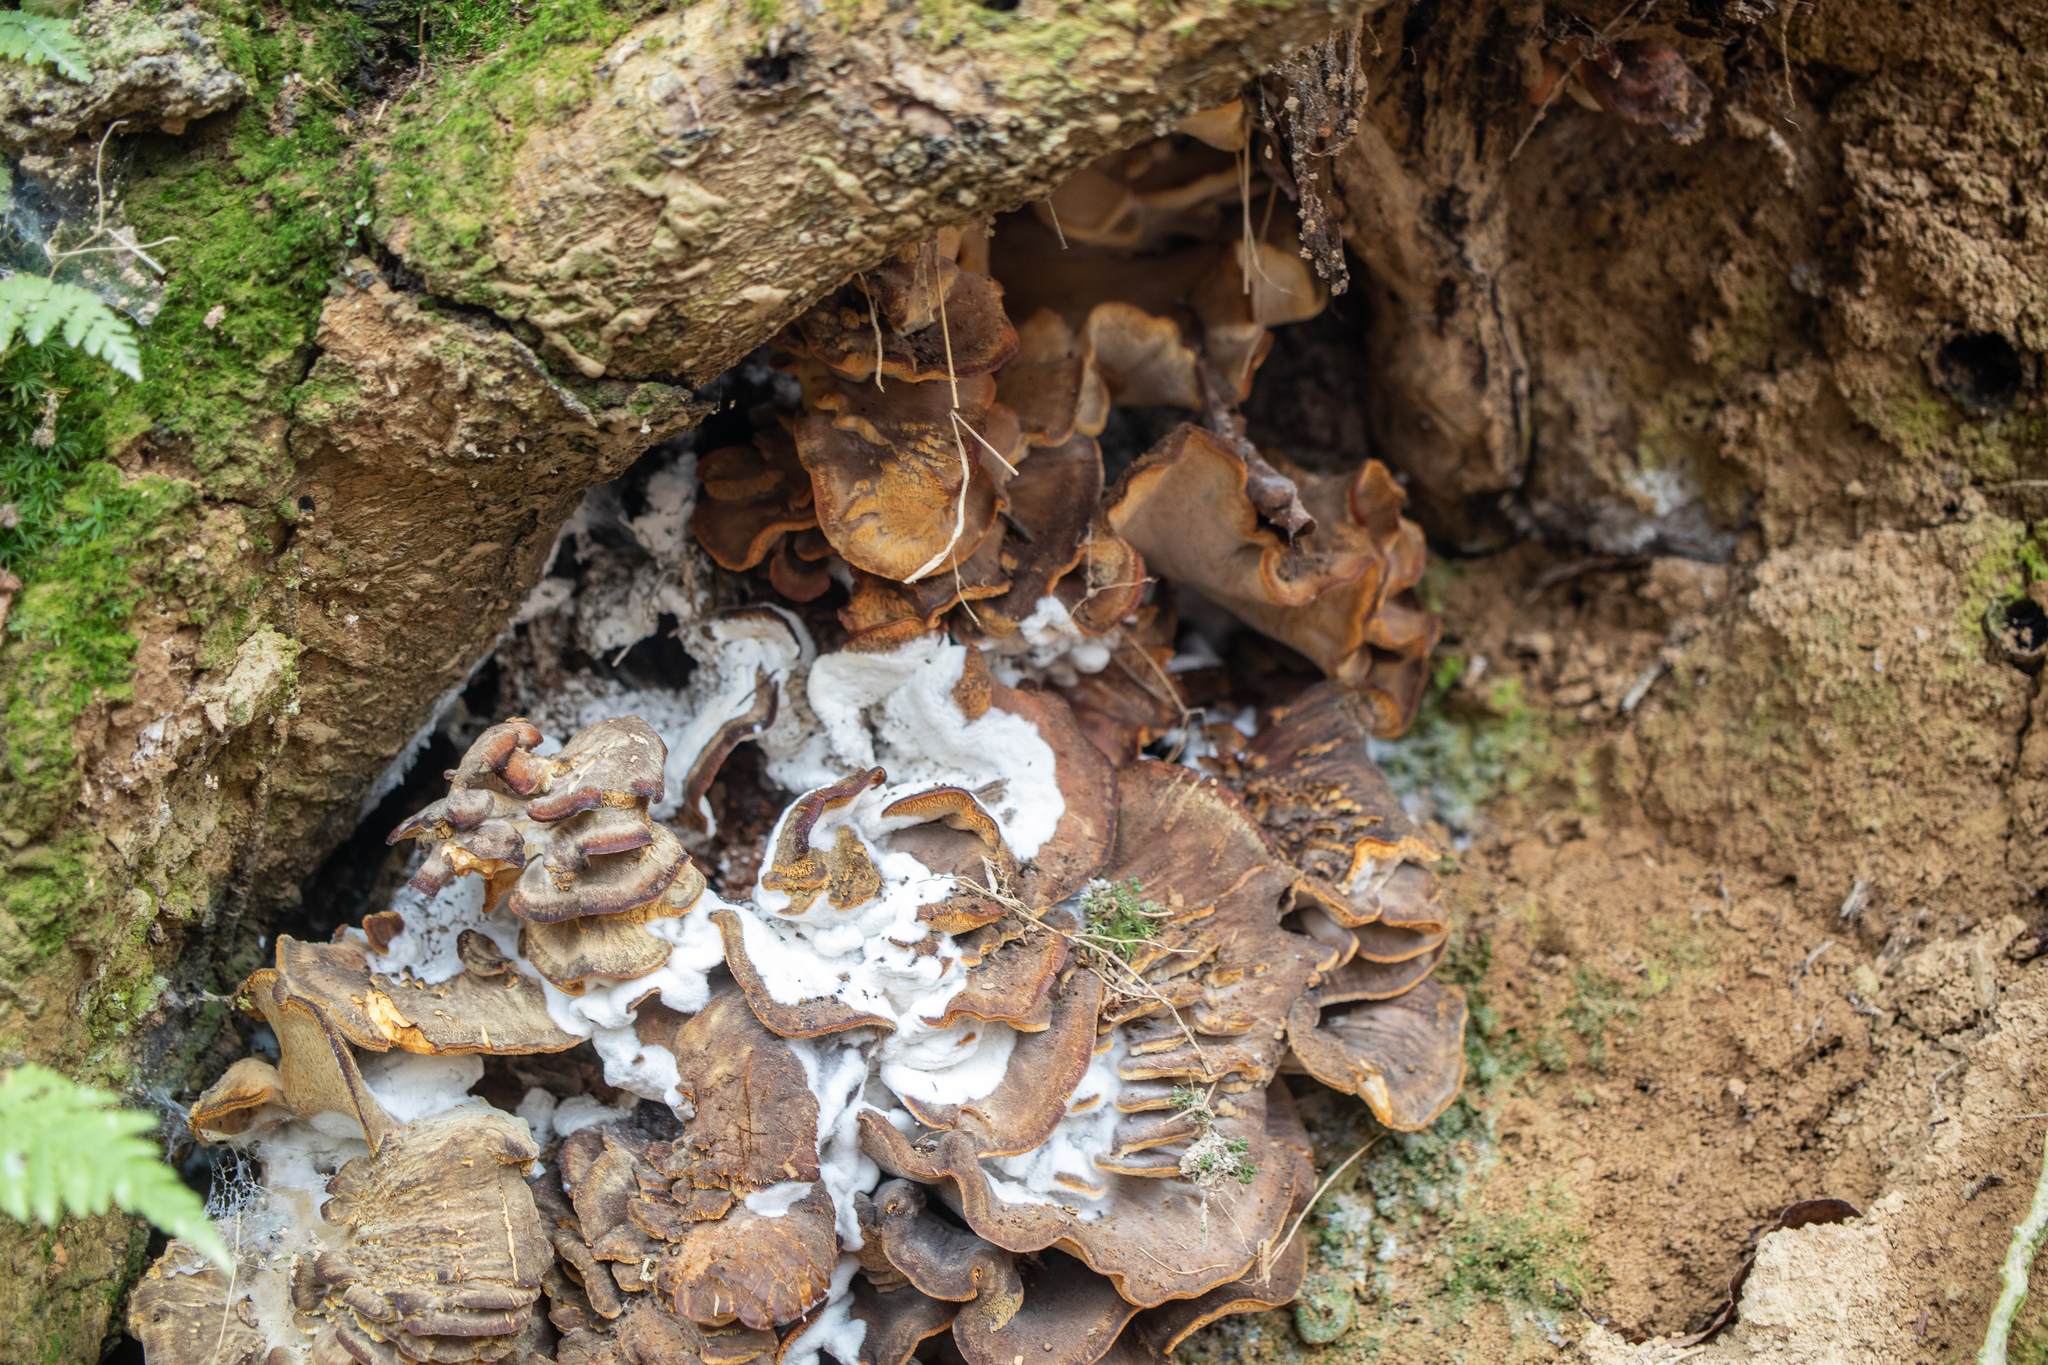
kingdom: Fungi
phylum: Basidiomycota
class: Agaricomycetes
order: Polyporales
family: Grifolaceae
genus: Grifola
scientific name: Grifola frondosa
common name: Hen of the woods
